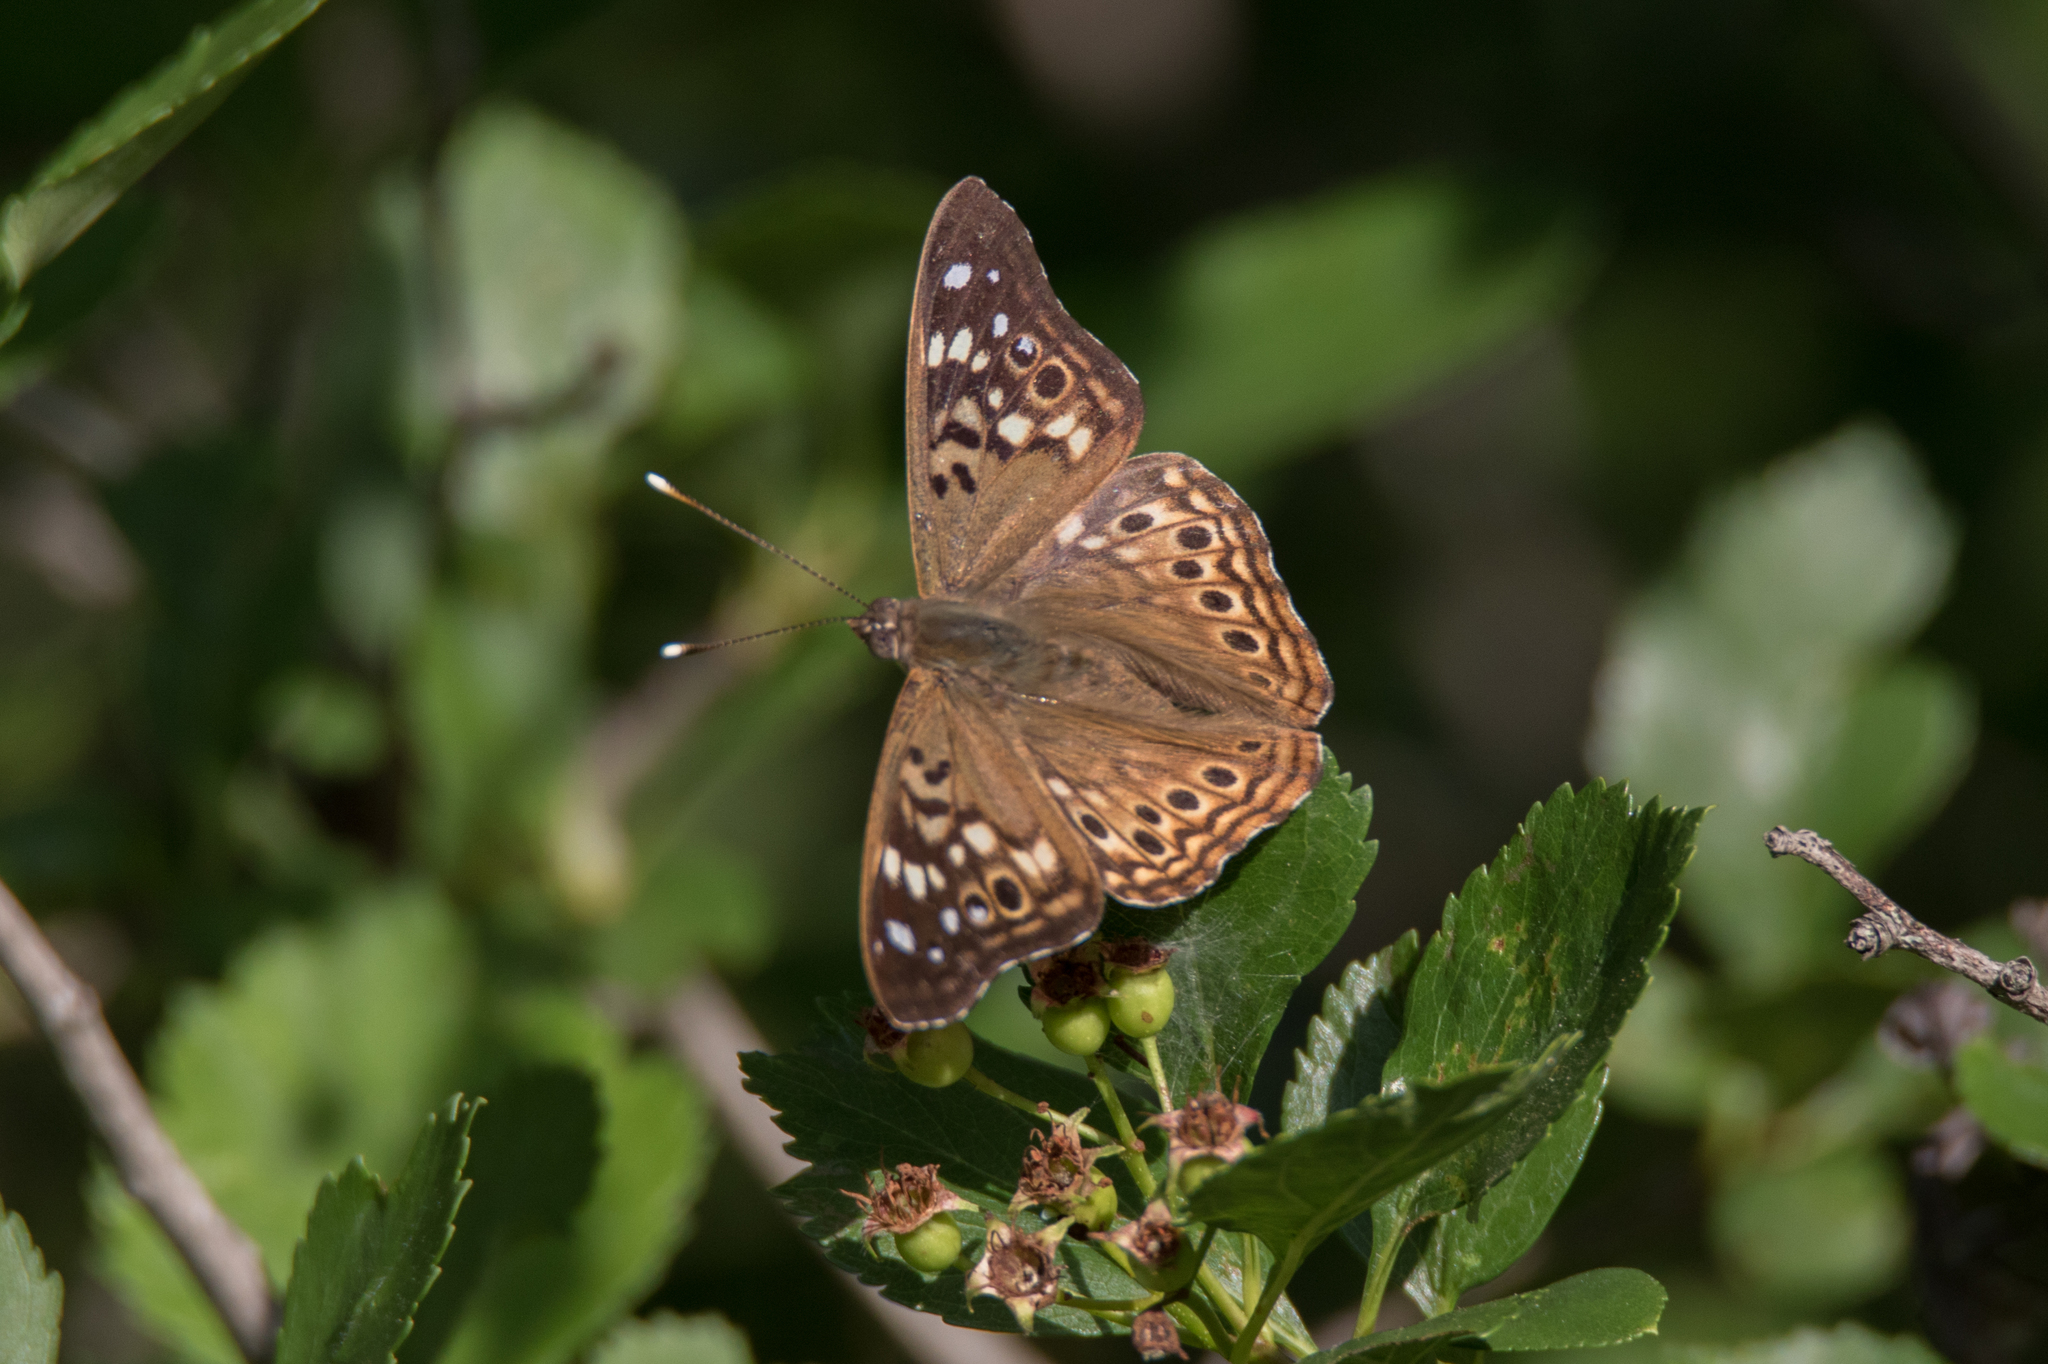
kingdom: Animalia
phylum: Arthropoda
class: Insecta
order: Lepidoptera
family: Nymphalidae
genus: Asterocampa
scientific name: Asterocampa celtis
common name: Hackberry emperor
